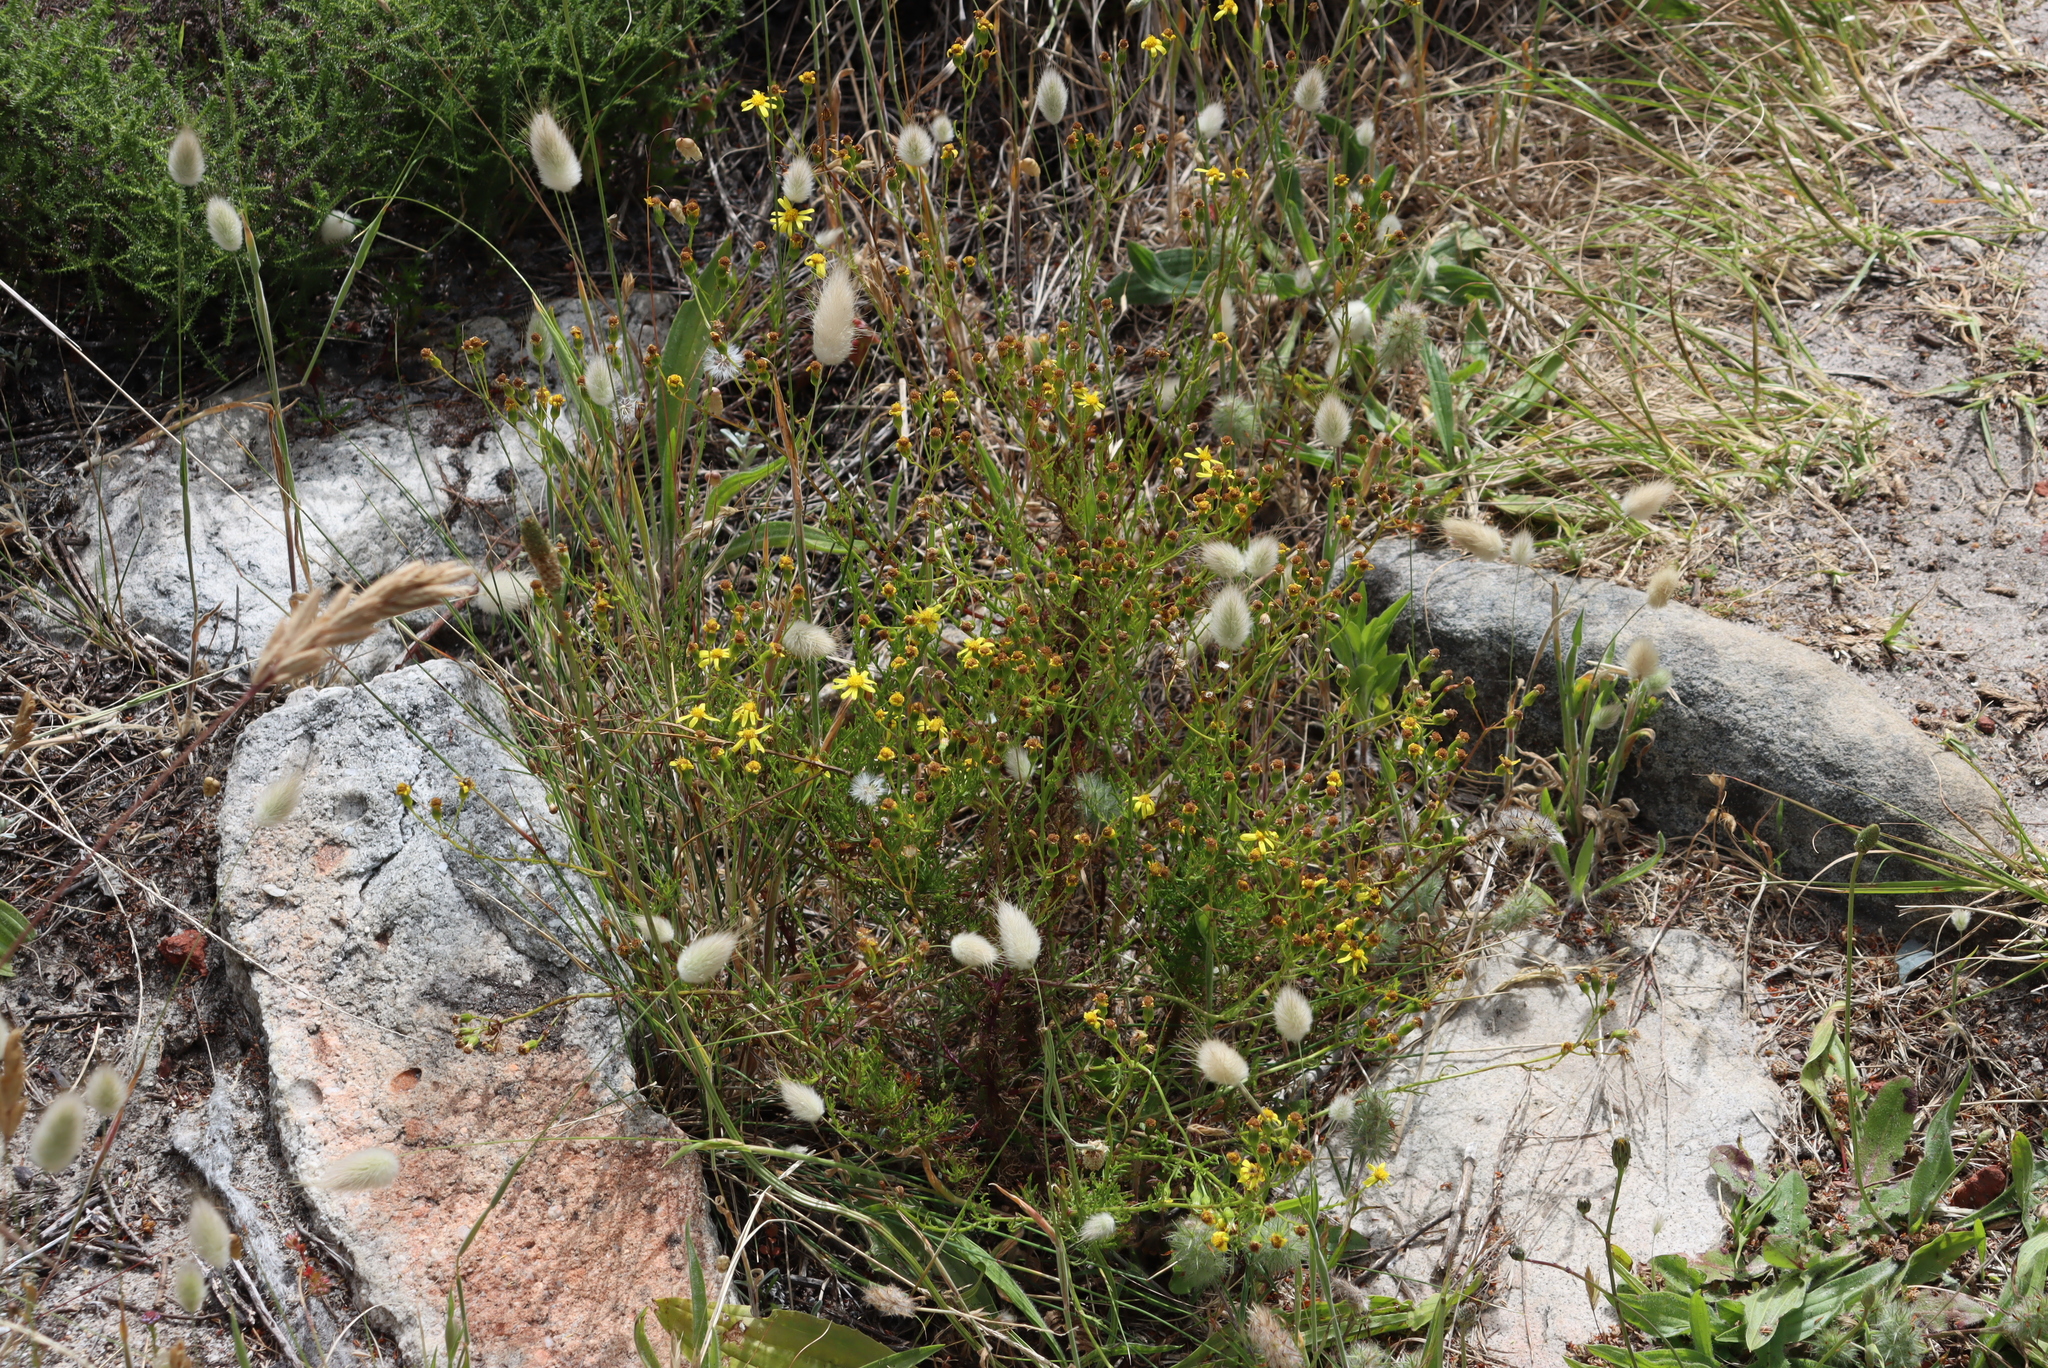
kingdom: Plantae
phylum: Tracheophyta
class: Magnoliopsida
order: Asterales
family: Asteraceae
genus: Senecio
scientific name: Senecio burchellii
